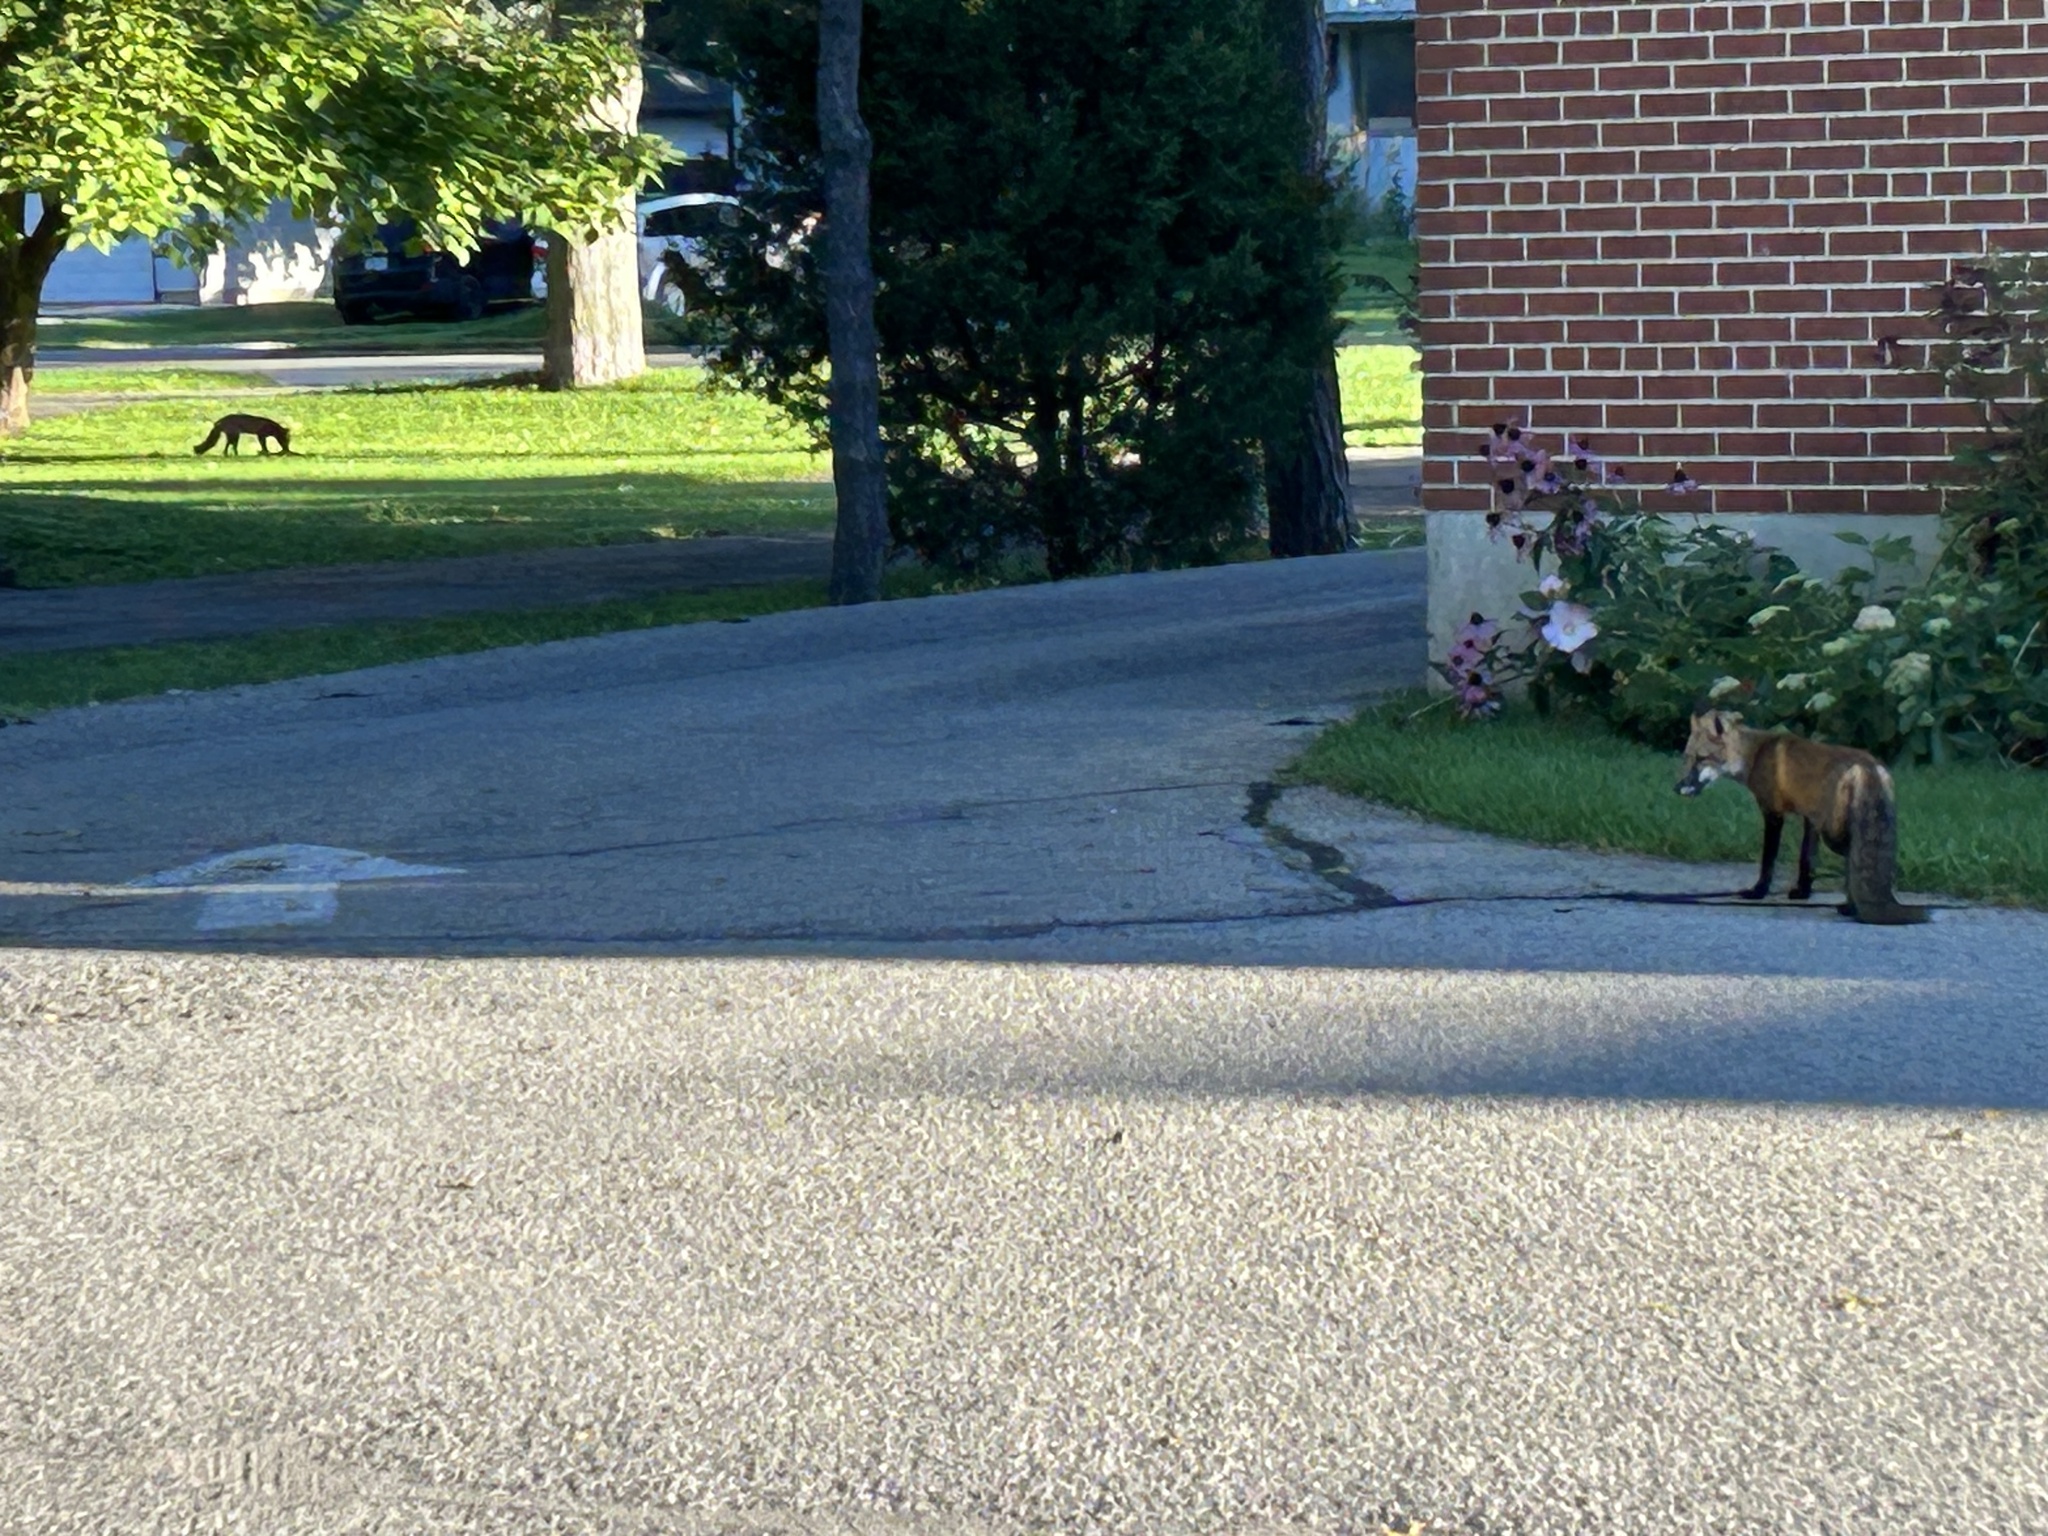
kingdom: Animalia
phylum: Chordata
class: Mammalia
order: Carnivora
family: Canidae
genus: Vulpes
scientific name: Vulpes vulpes
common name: Red fox
